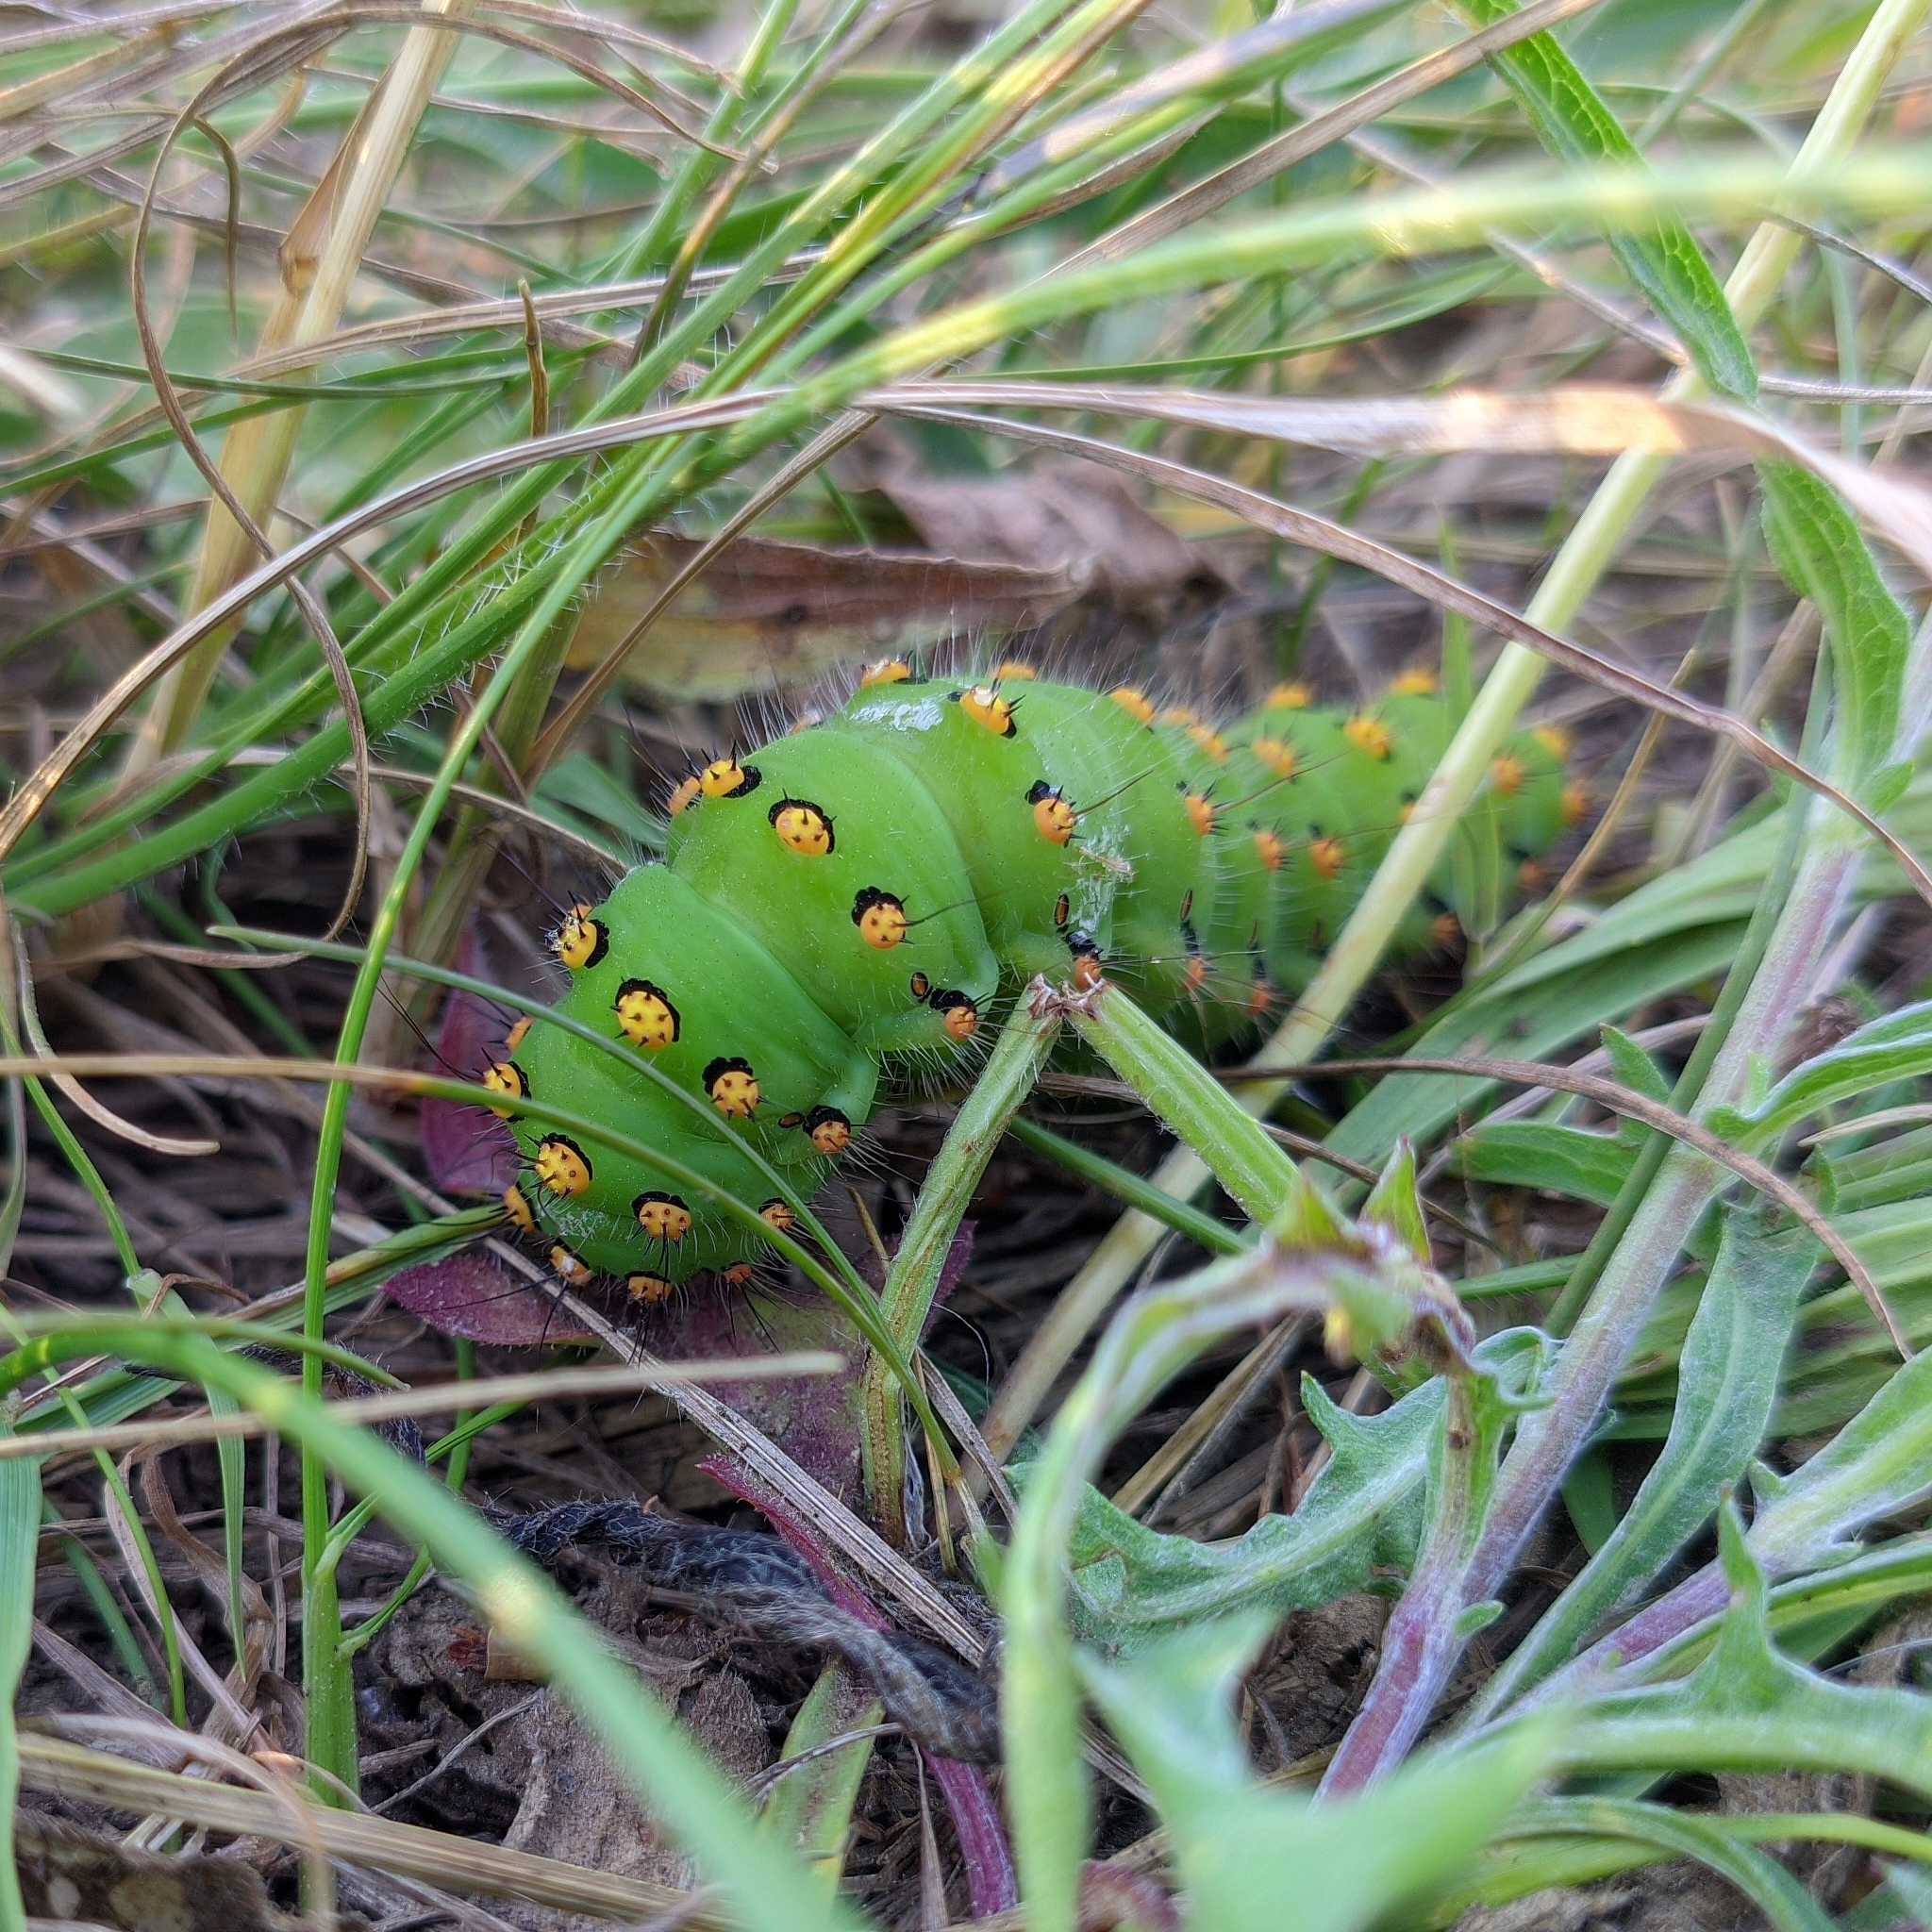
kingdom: Animalia
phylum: Arthropoda
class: Insecta
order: Lepidoptera
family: Saturniidae
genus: Saturnia
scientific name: Saturnia pavonia
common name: Emperor moth
